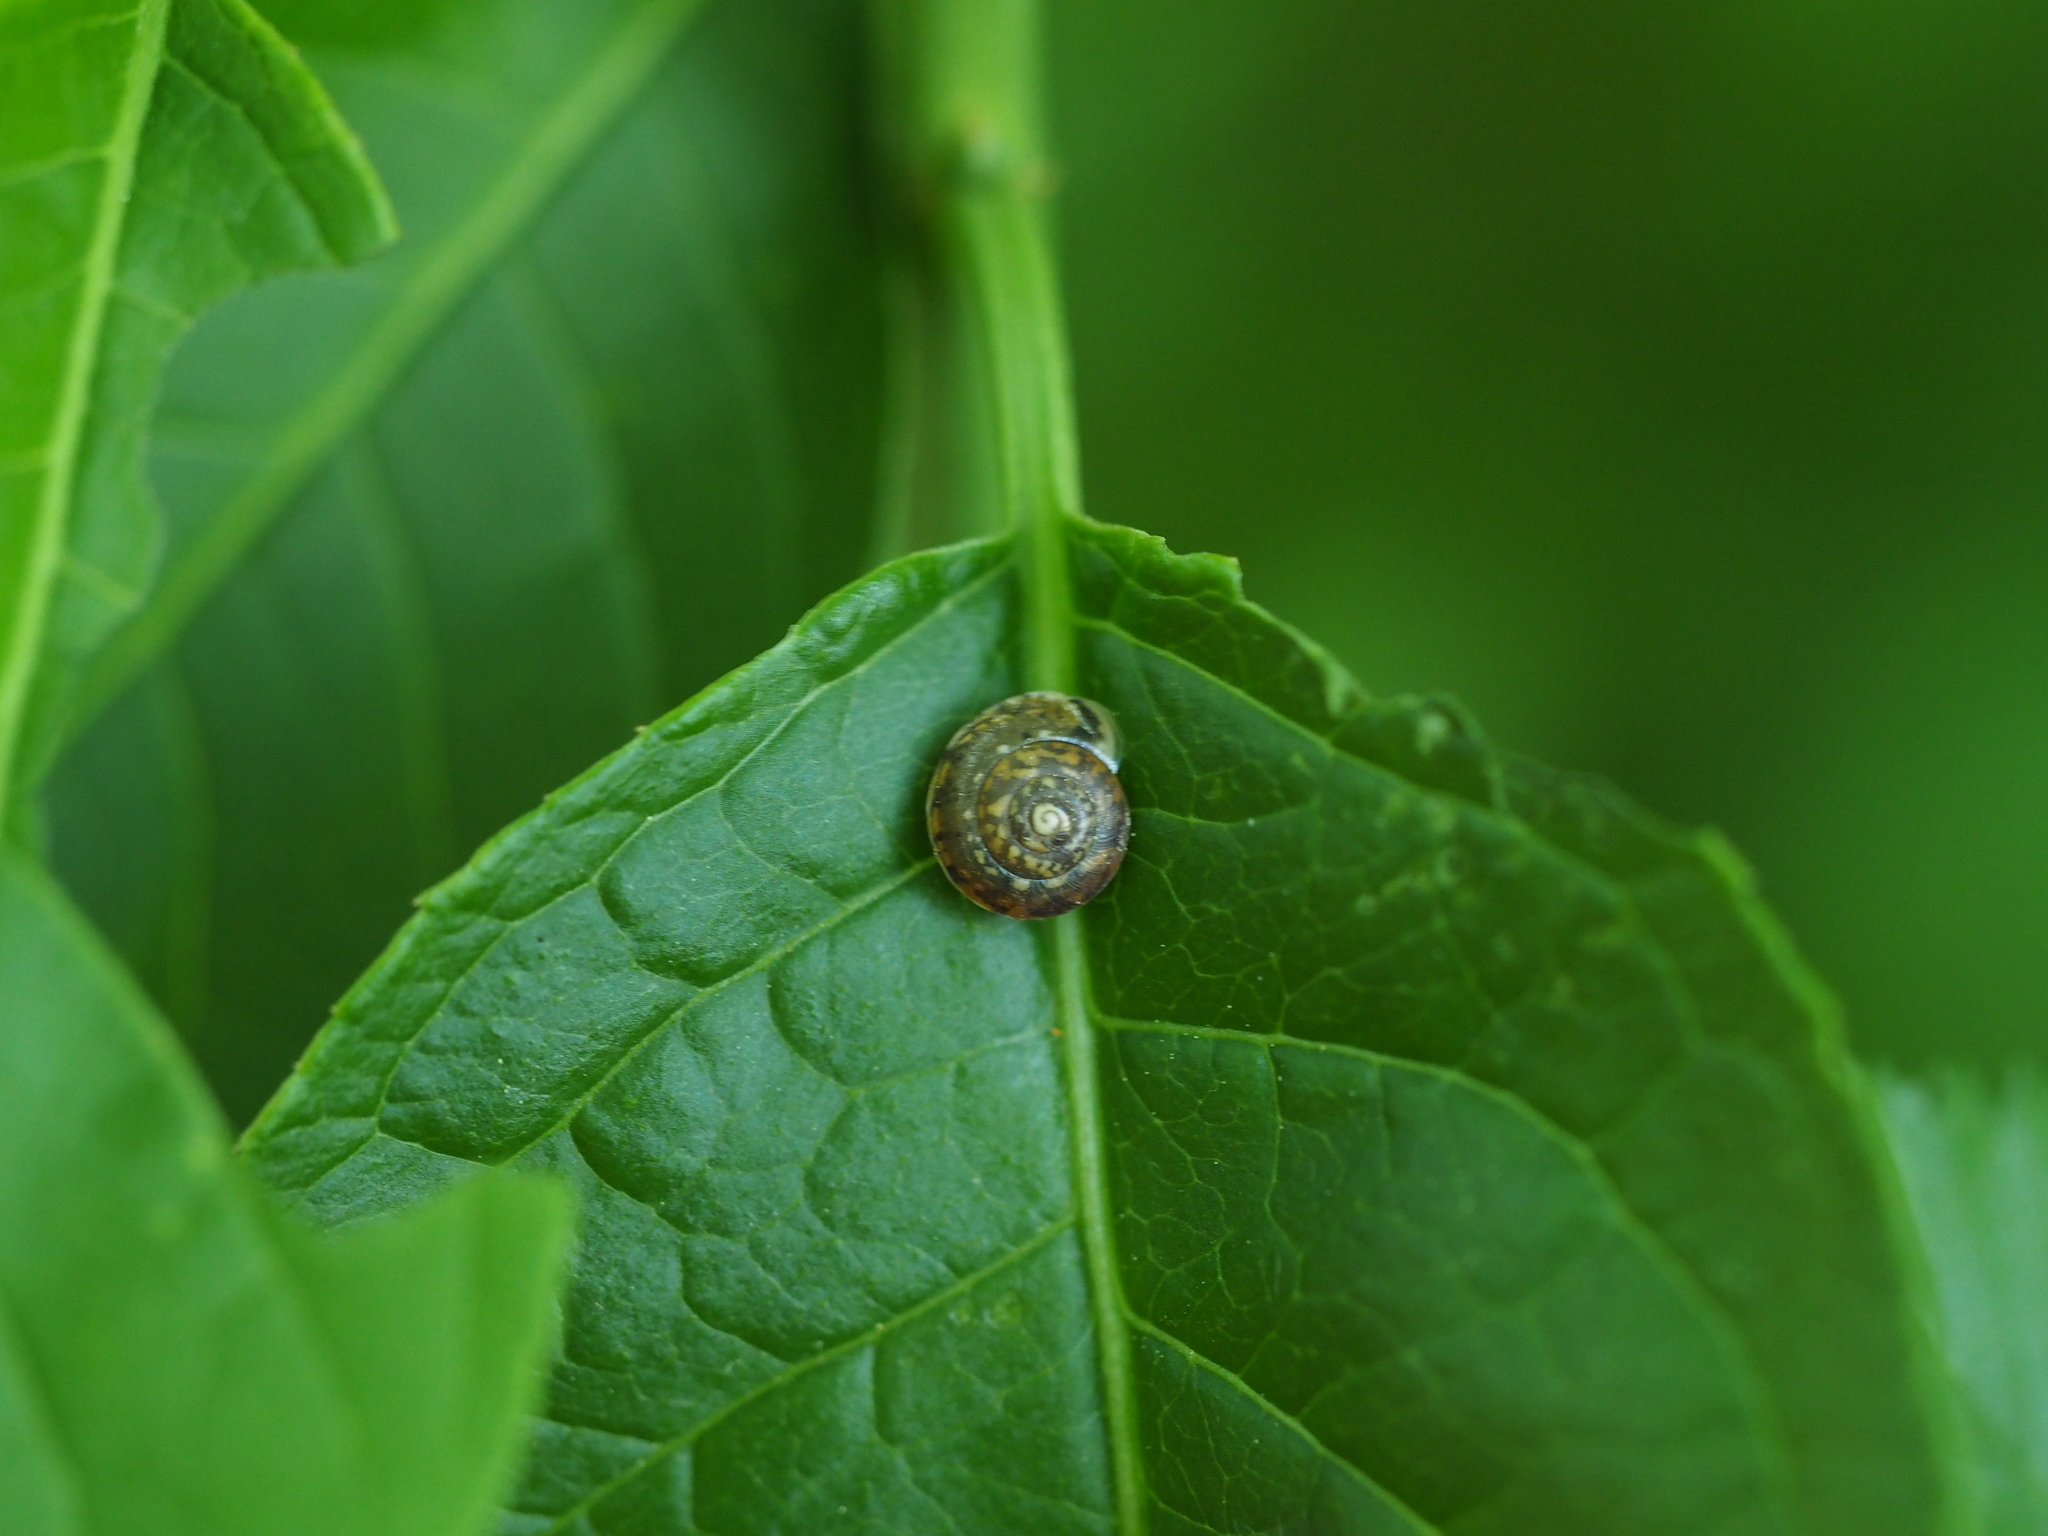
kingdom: Animalia
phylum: Mollusca
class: Gastropoda
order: Stylommatophora
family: Hygromiidae
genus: Hygromia
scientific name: Hygromia cinctella
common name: Girdled snail
